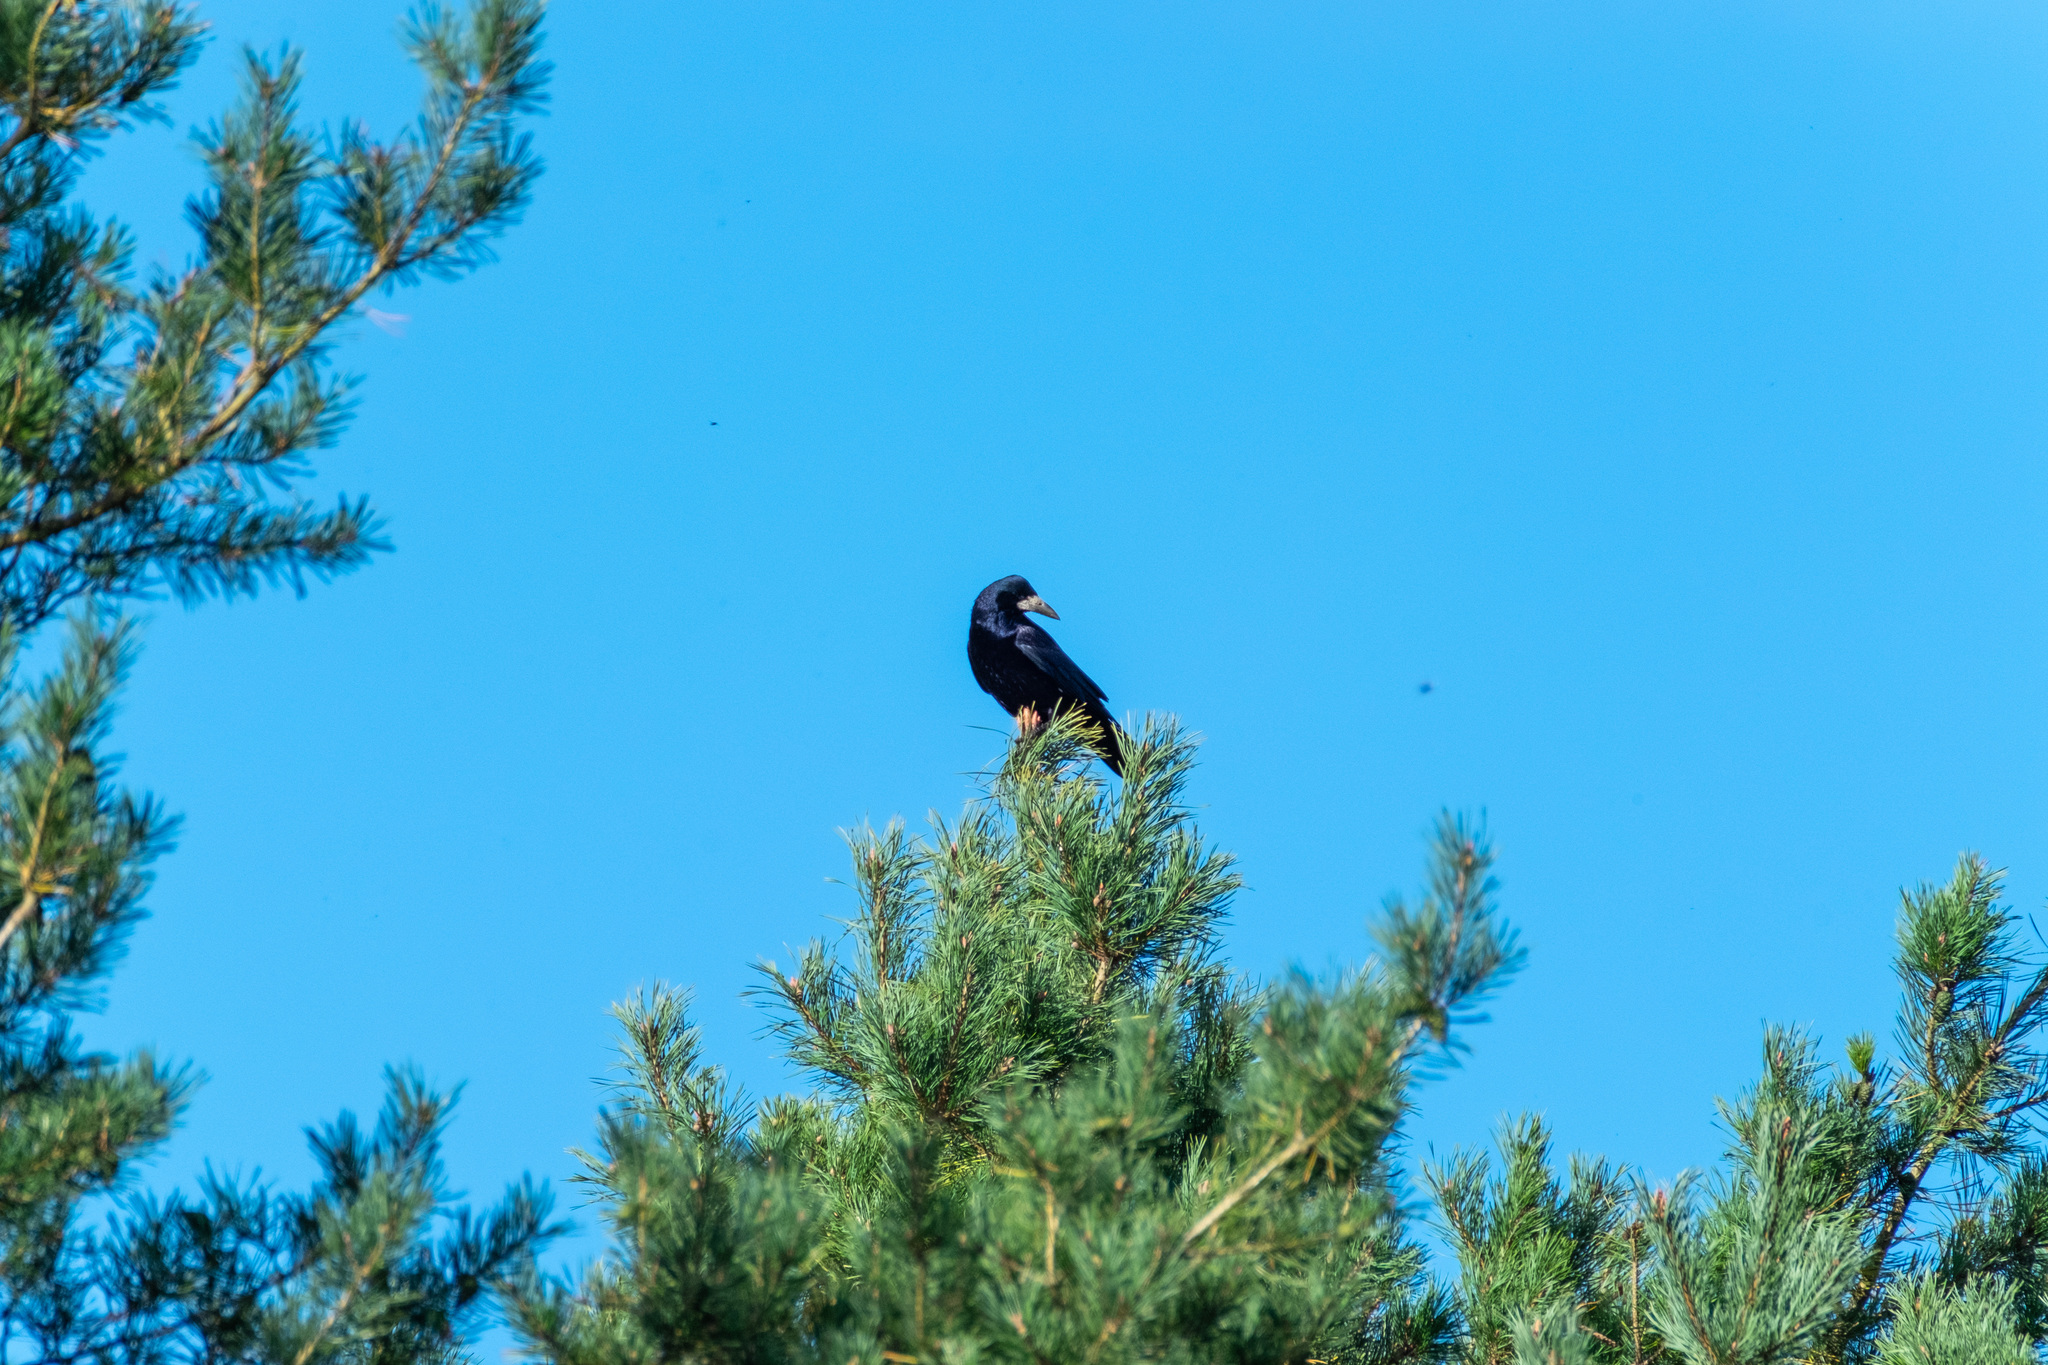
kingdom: Animalia
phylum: Chordata
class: Aves
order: Passeriformes
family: Corvidae
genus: Corvus
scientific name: Corvus frugilegus
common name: Rook
